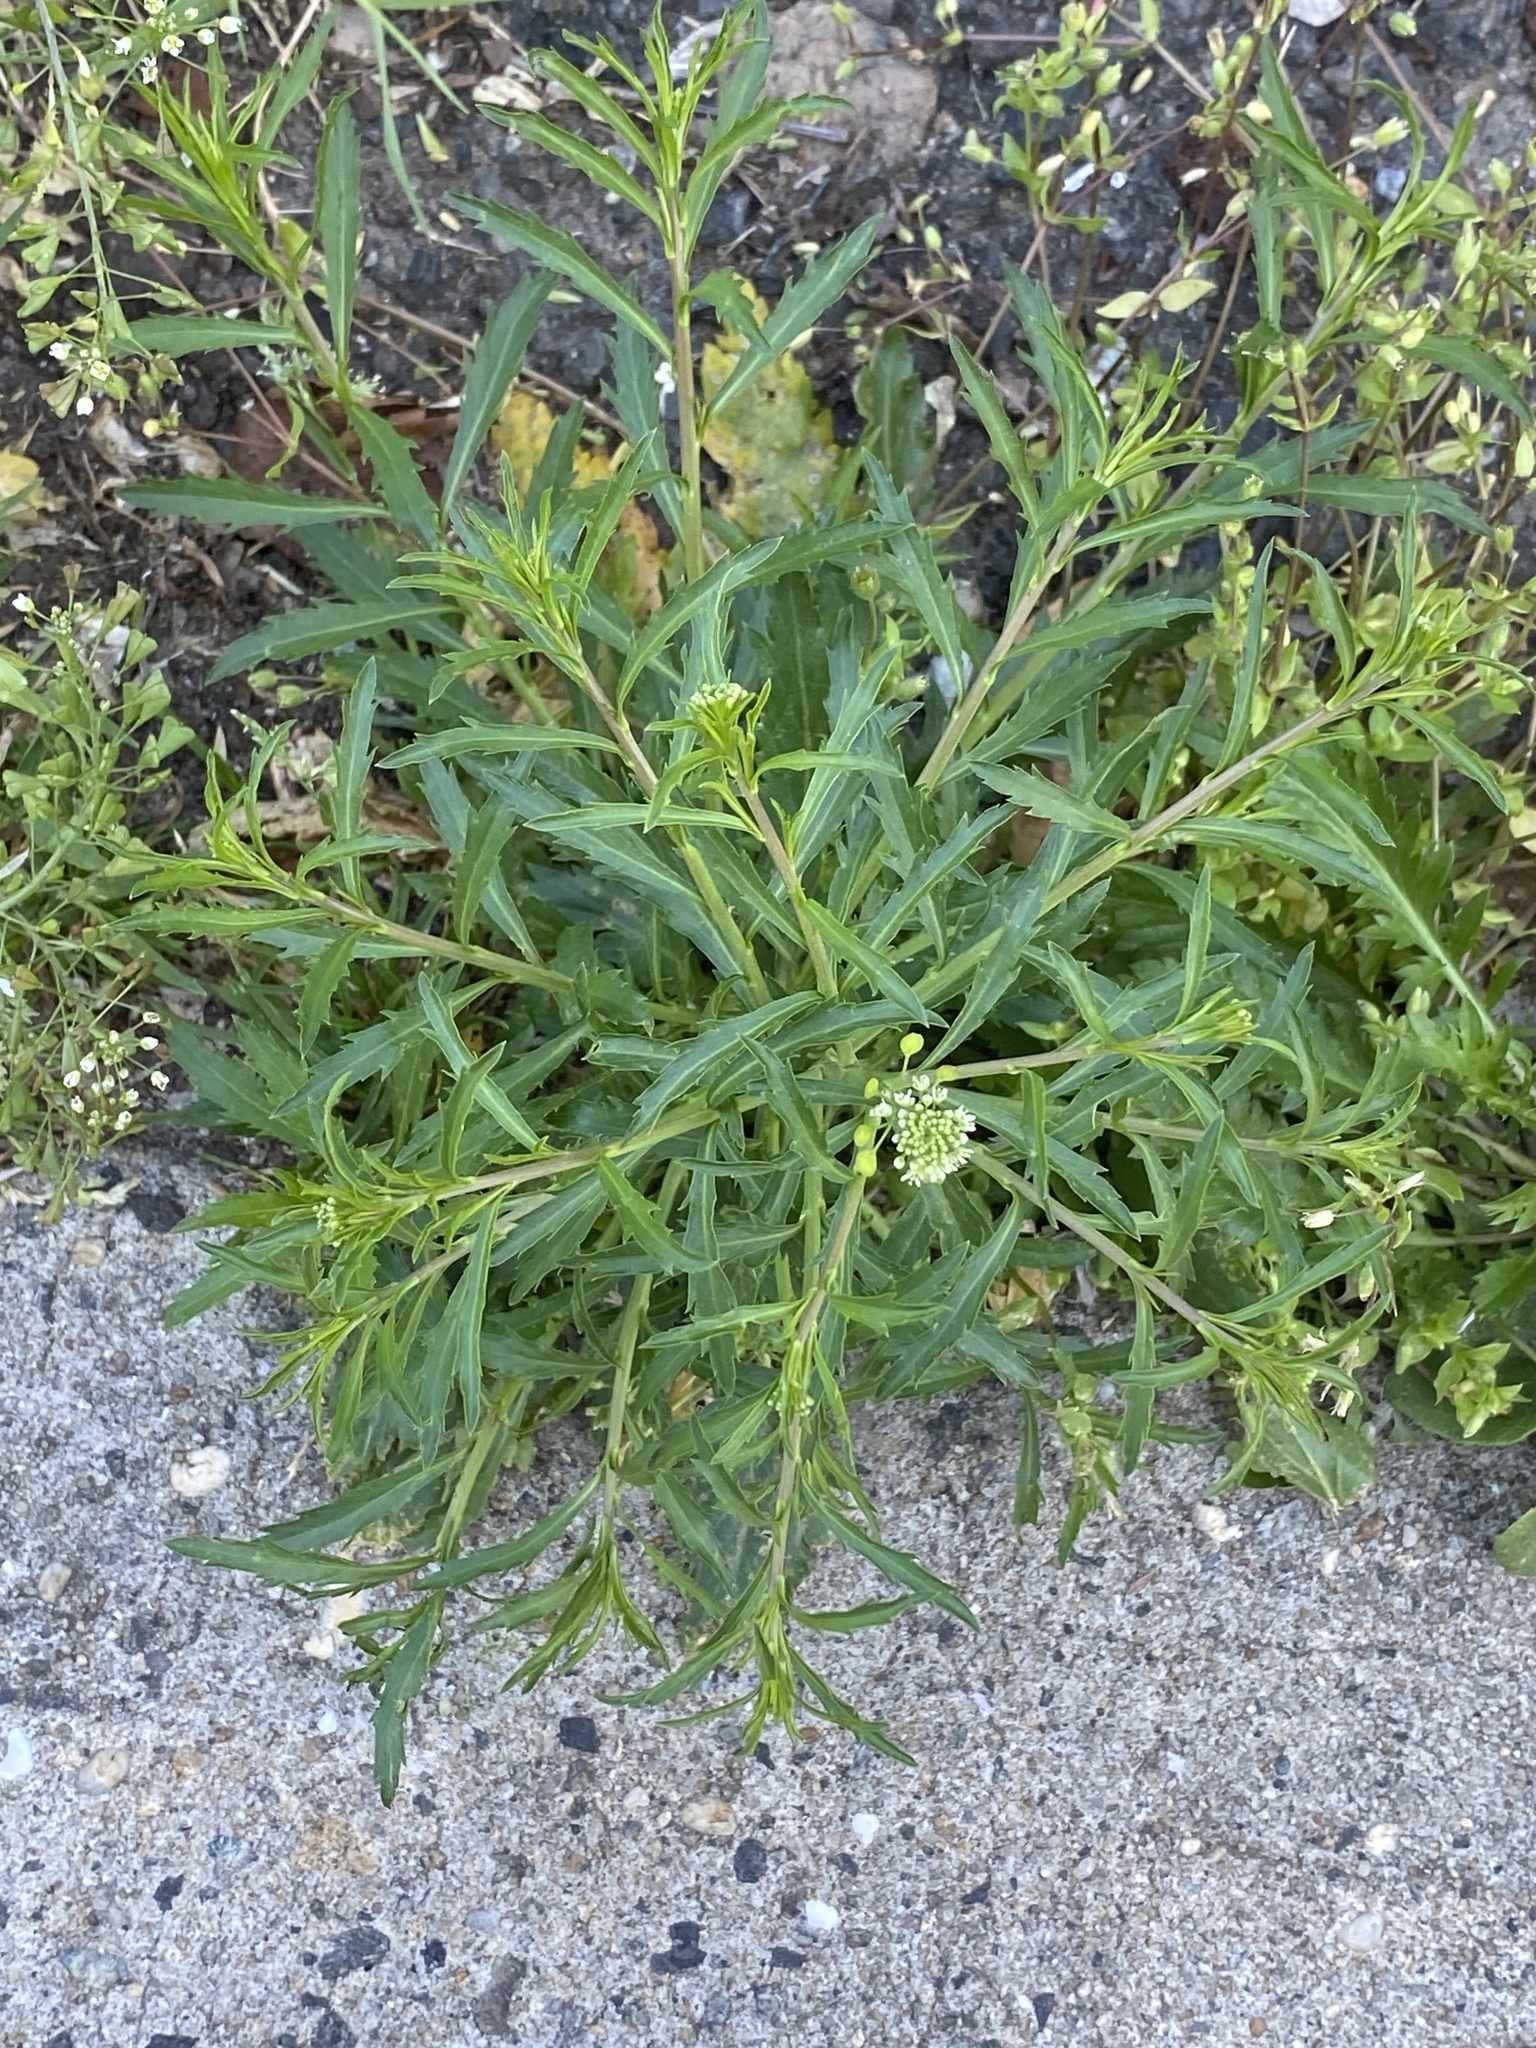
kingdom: Plantae
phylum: Tracheophyta
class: Magnoliopsida
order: Brassicales
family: Brassicaceae
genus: Lepidium
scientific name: Lepidium virginicum
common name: Least pepperwort
